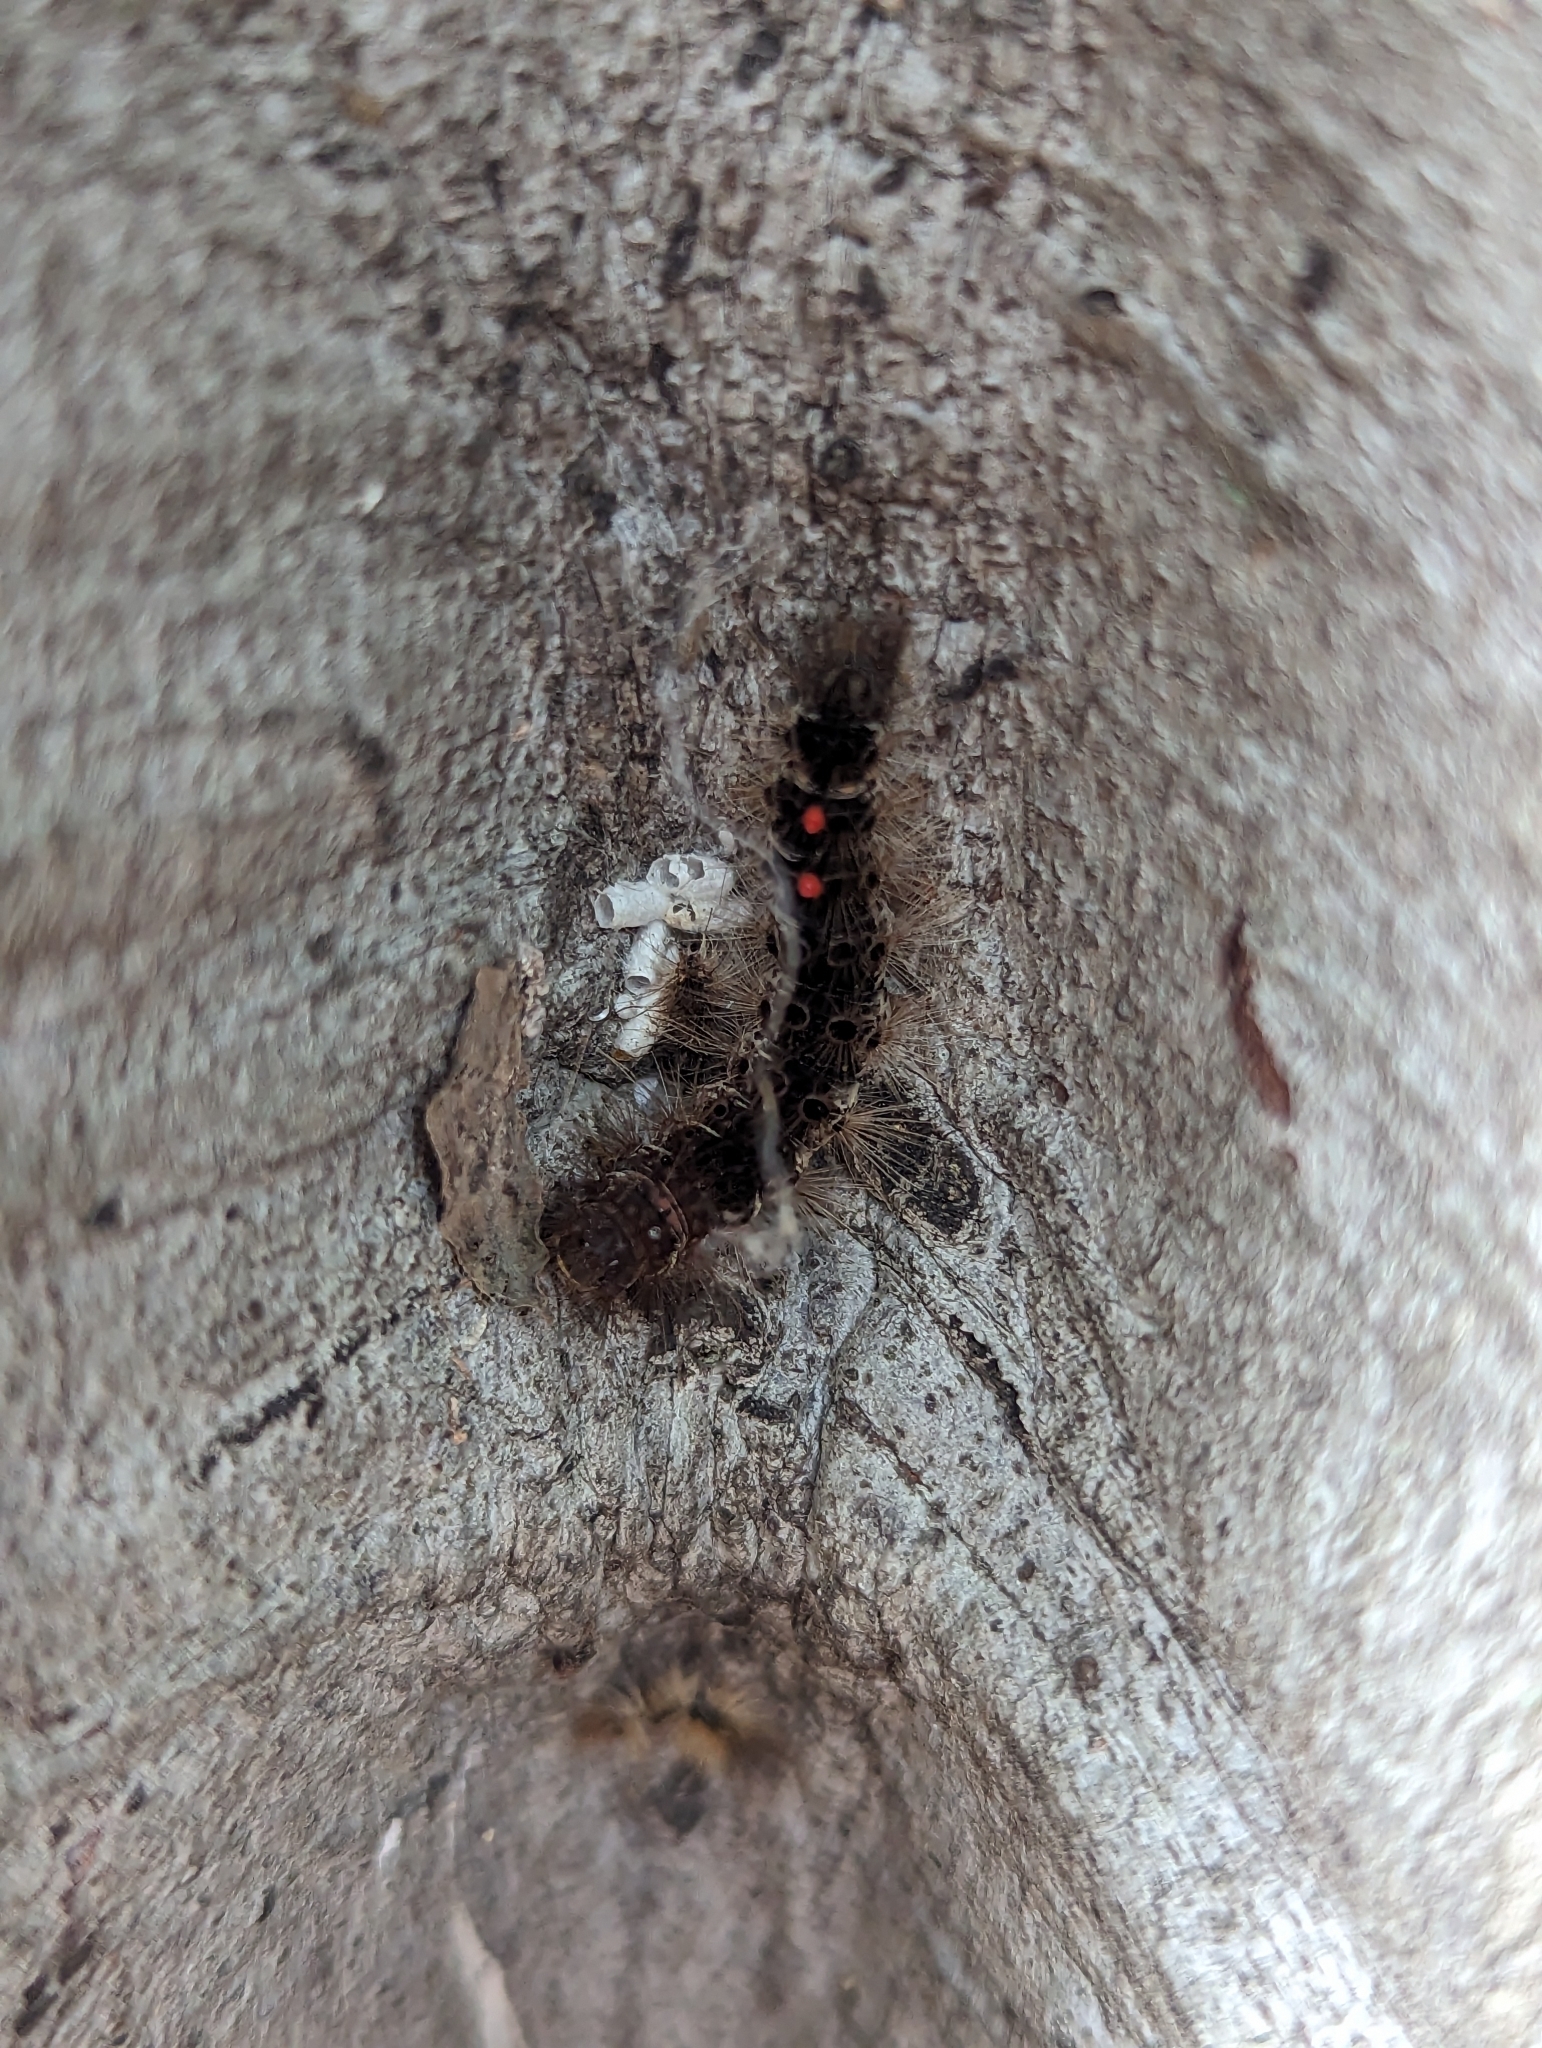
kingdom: Animalia
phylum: Arthropoda
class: Insecta
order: Lepidoptera
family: Erebidae
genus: Amata
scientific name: Amata nigriceps
